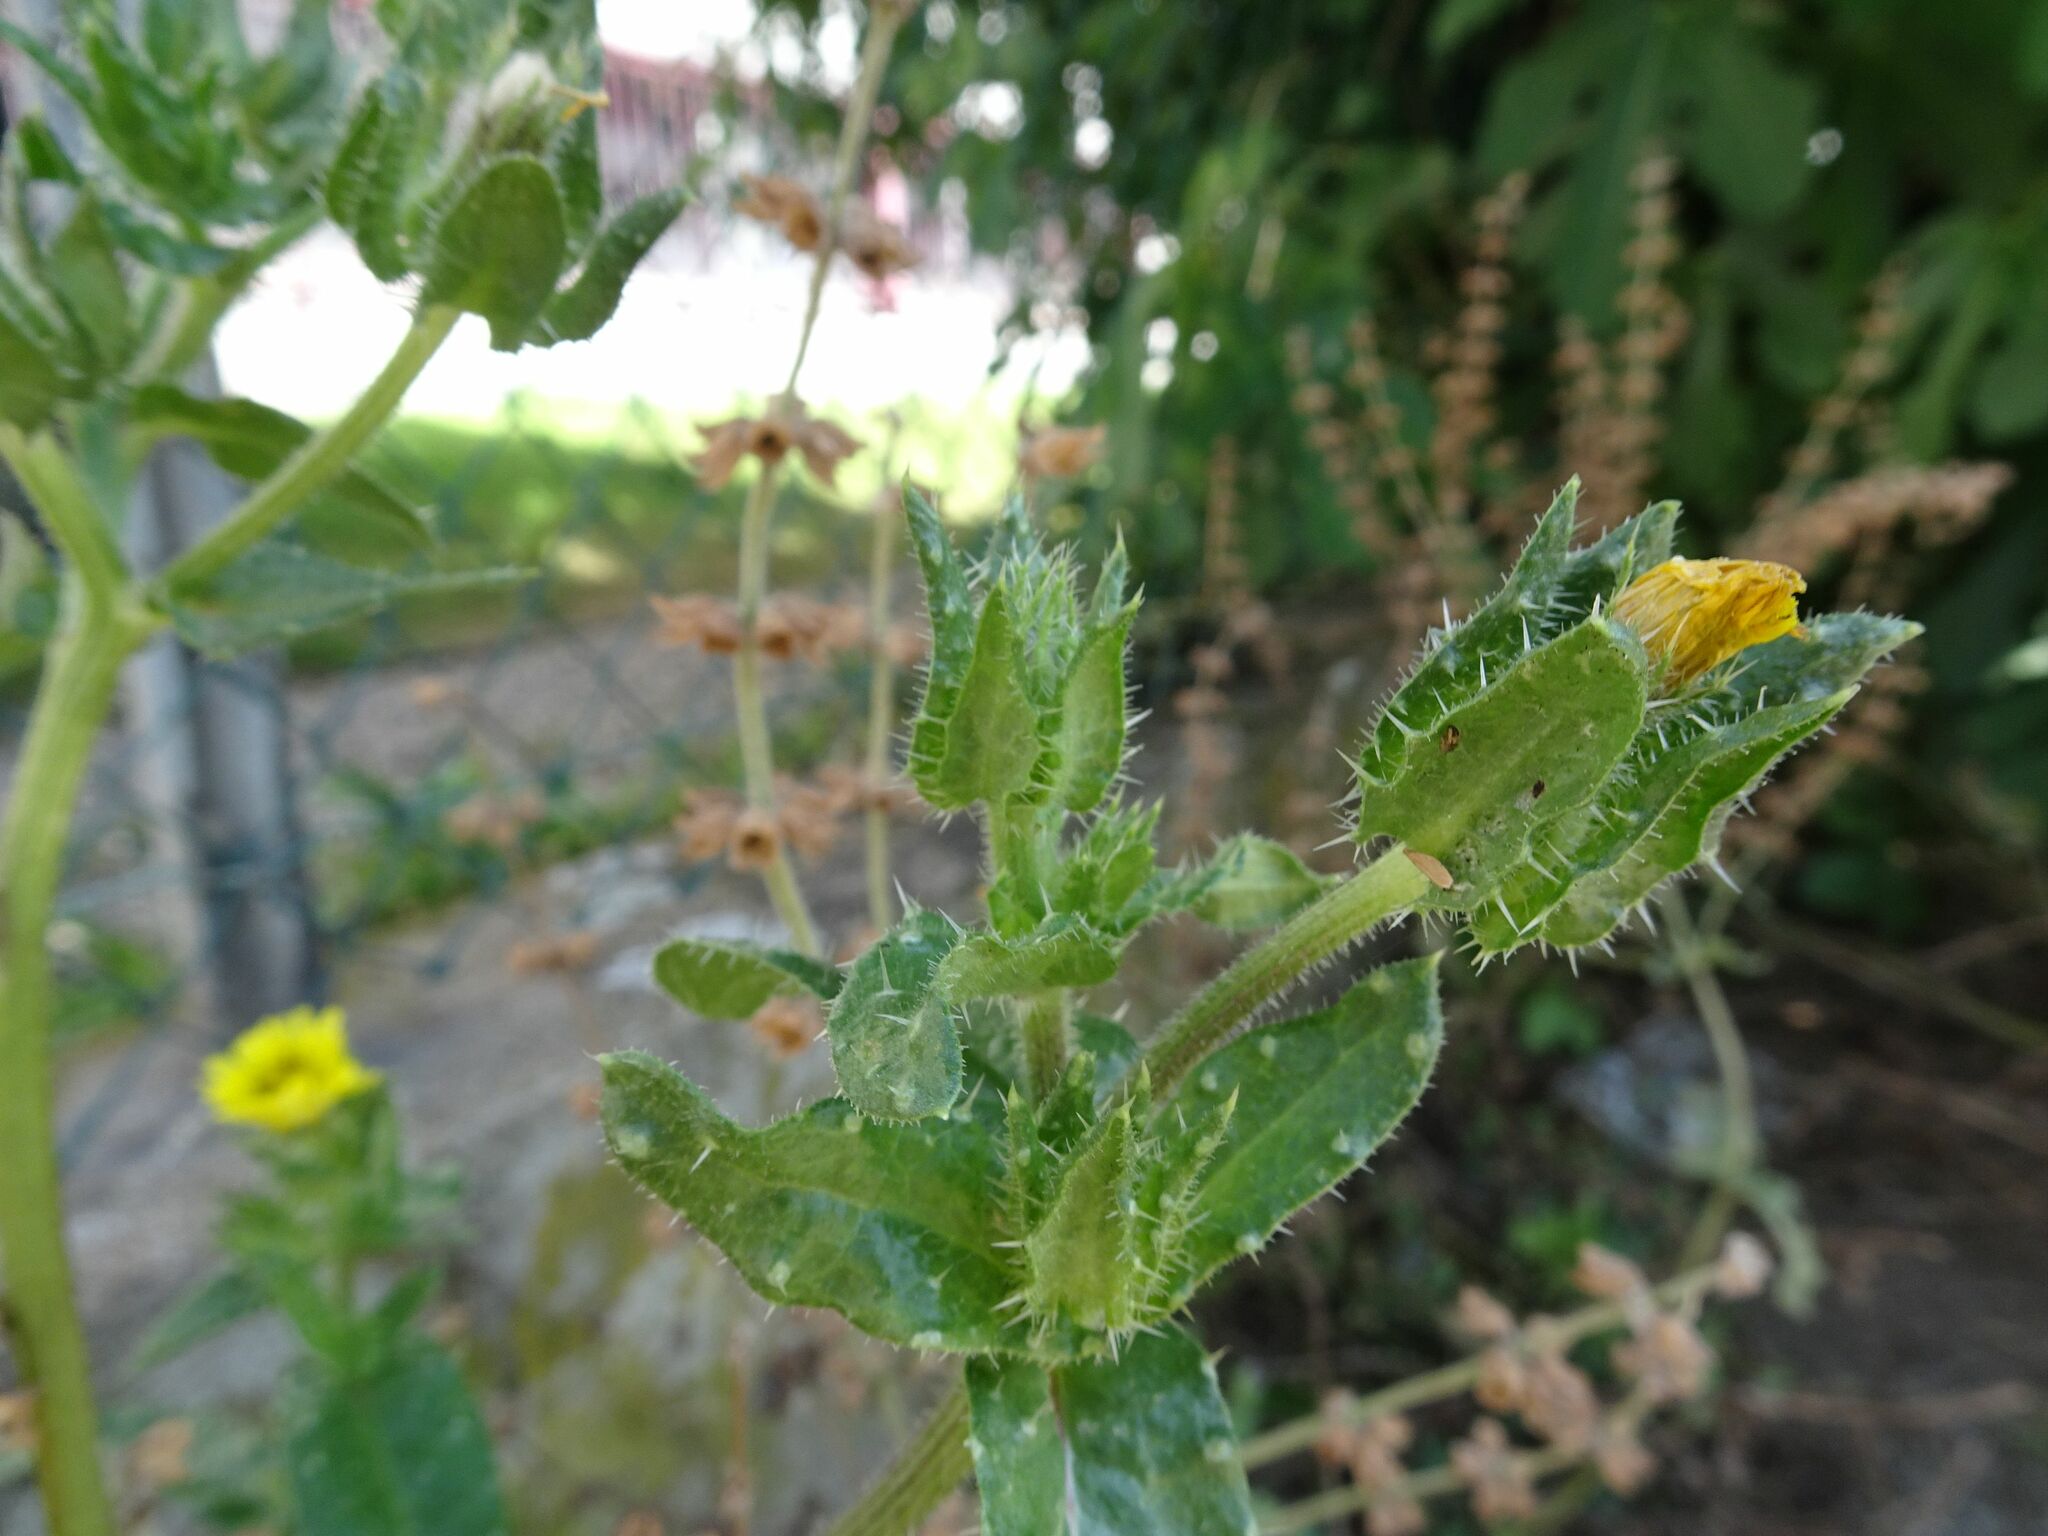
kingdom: Plantae
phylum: Tracheophyta
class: Magnoliopsida
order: Asterales
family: Asteraceae
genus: Helminthotheca
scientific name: Helminthotheca echioides
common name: Ox-tongue
